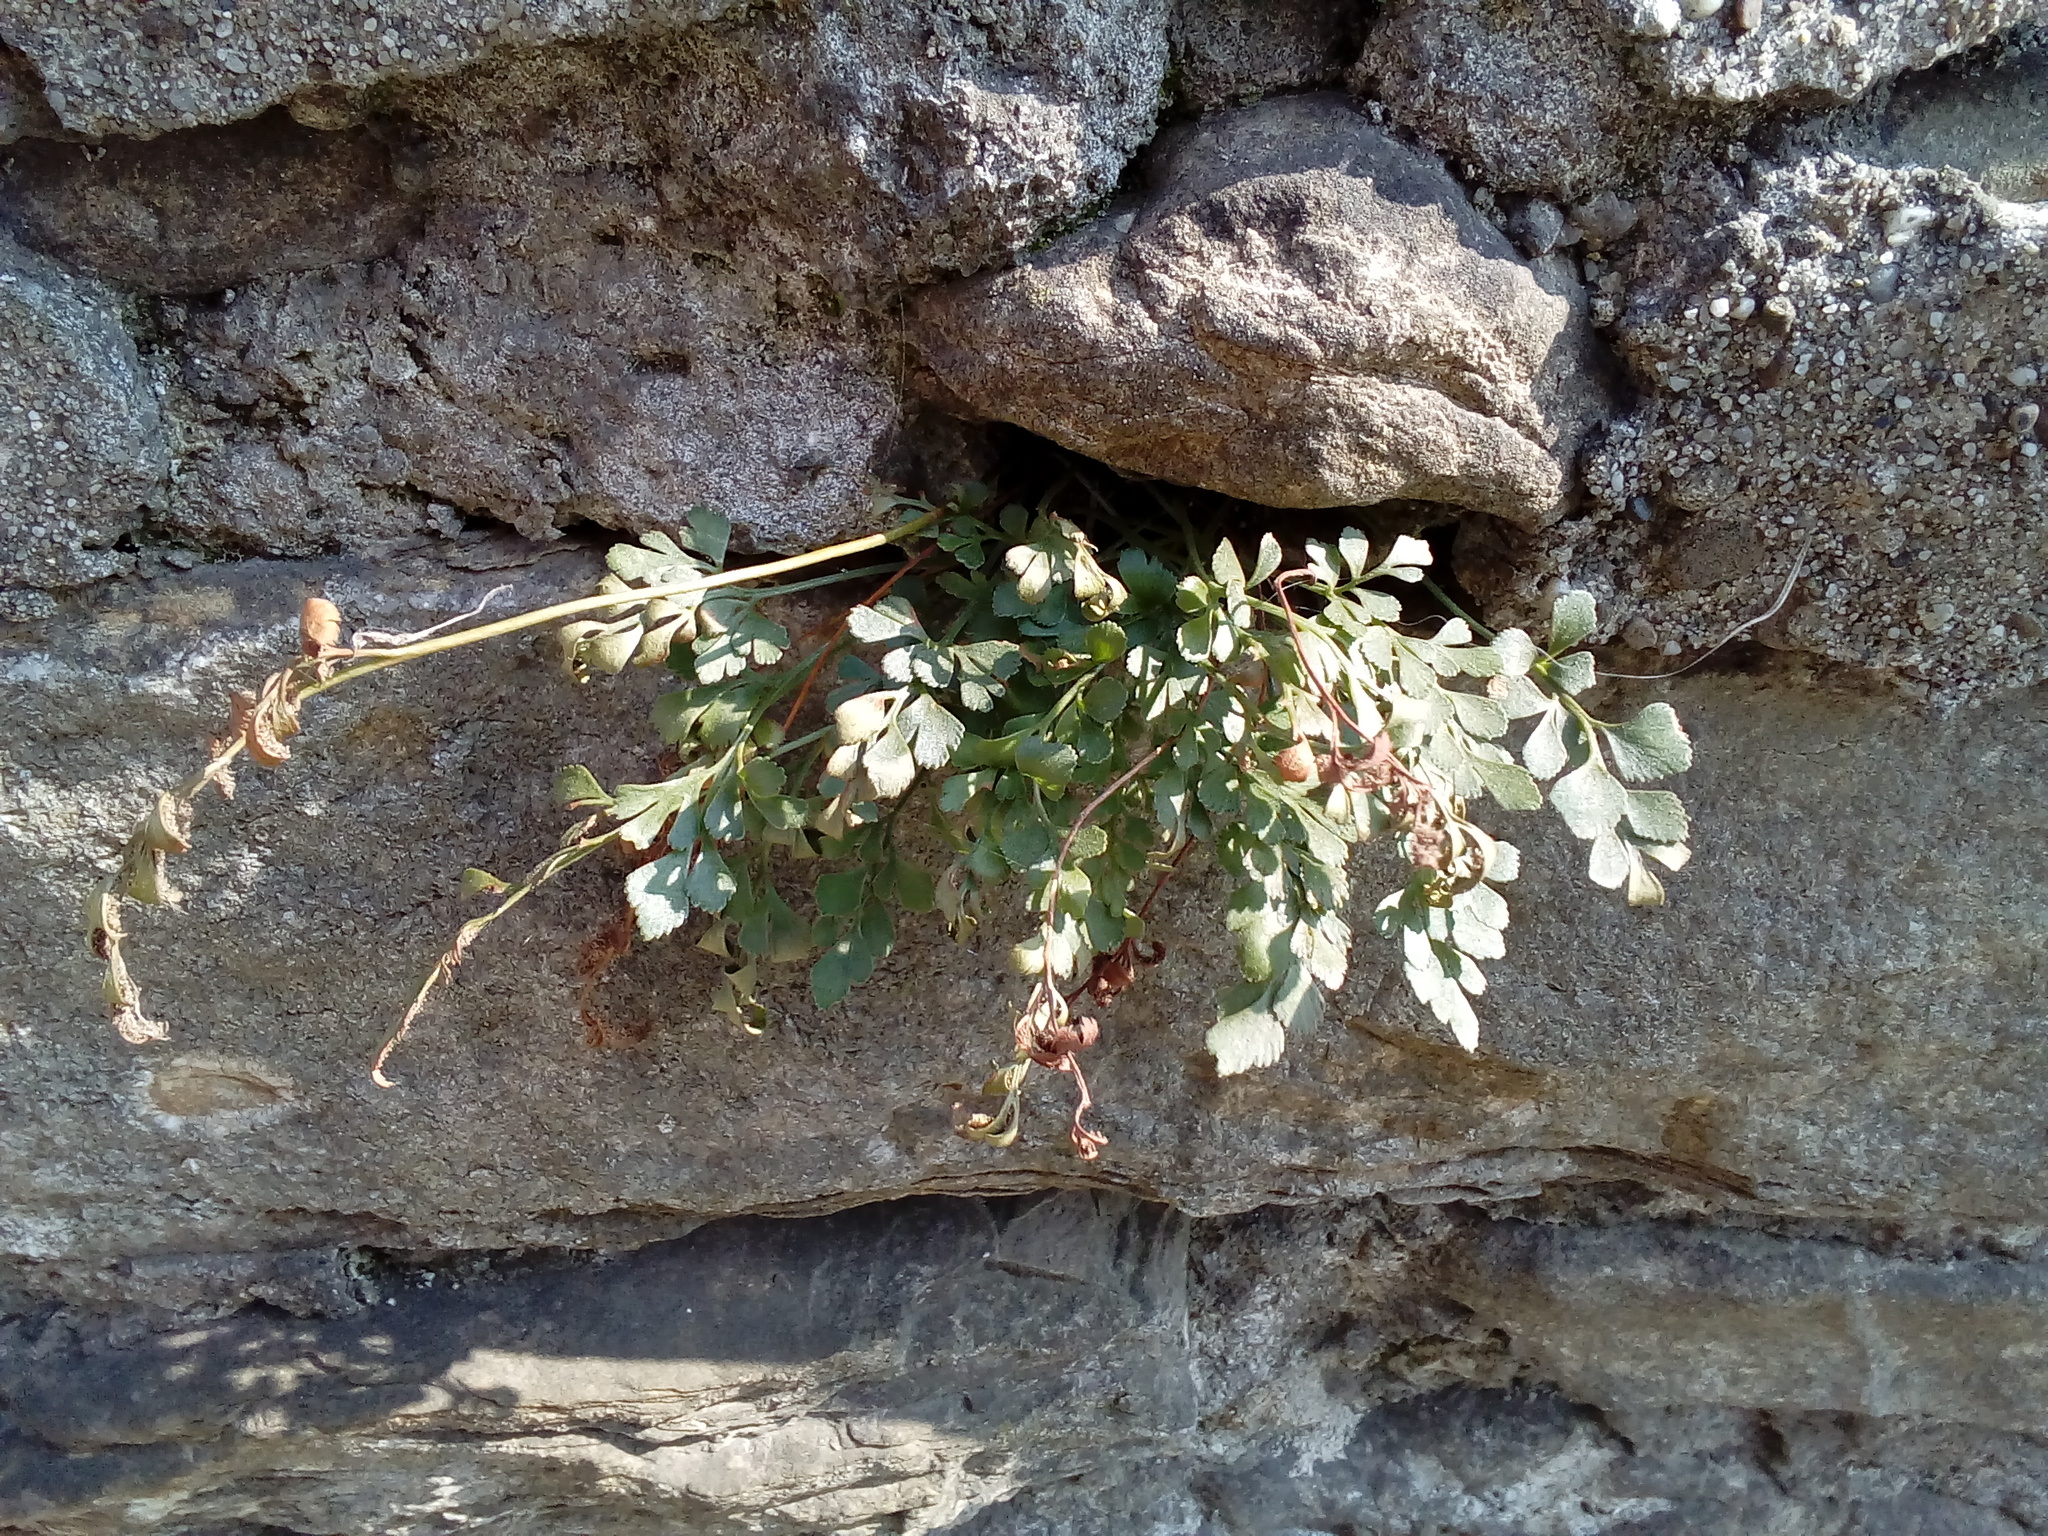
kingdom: Plantae
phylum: Tracheophyta
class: Polypodiopsida
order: Polypodiales
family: Aspleniaceae
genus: Asplenium
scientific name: Asplenium ruta-muraria
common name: Wall-rue
